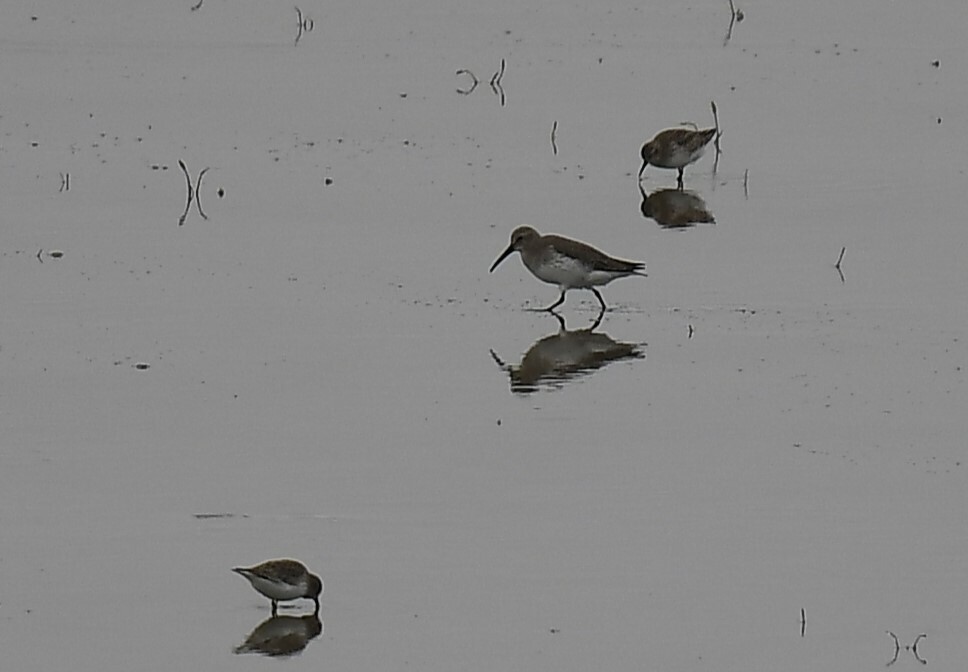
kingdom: Animalia
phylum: Chordata
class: Aves
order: Charadriiformes
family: Scolopacidae
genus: Calidris
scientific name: Calidris alpina
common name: Dunlin
